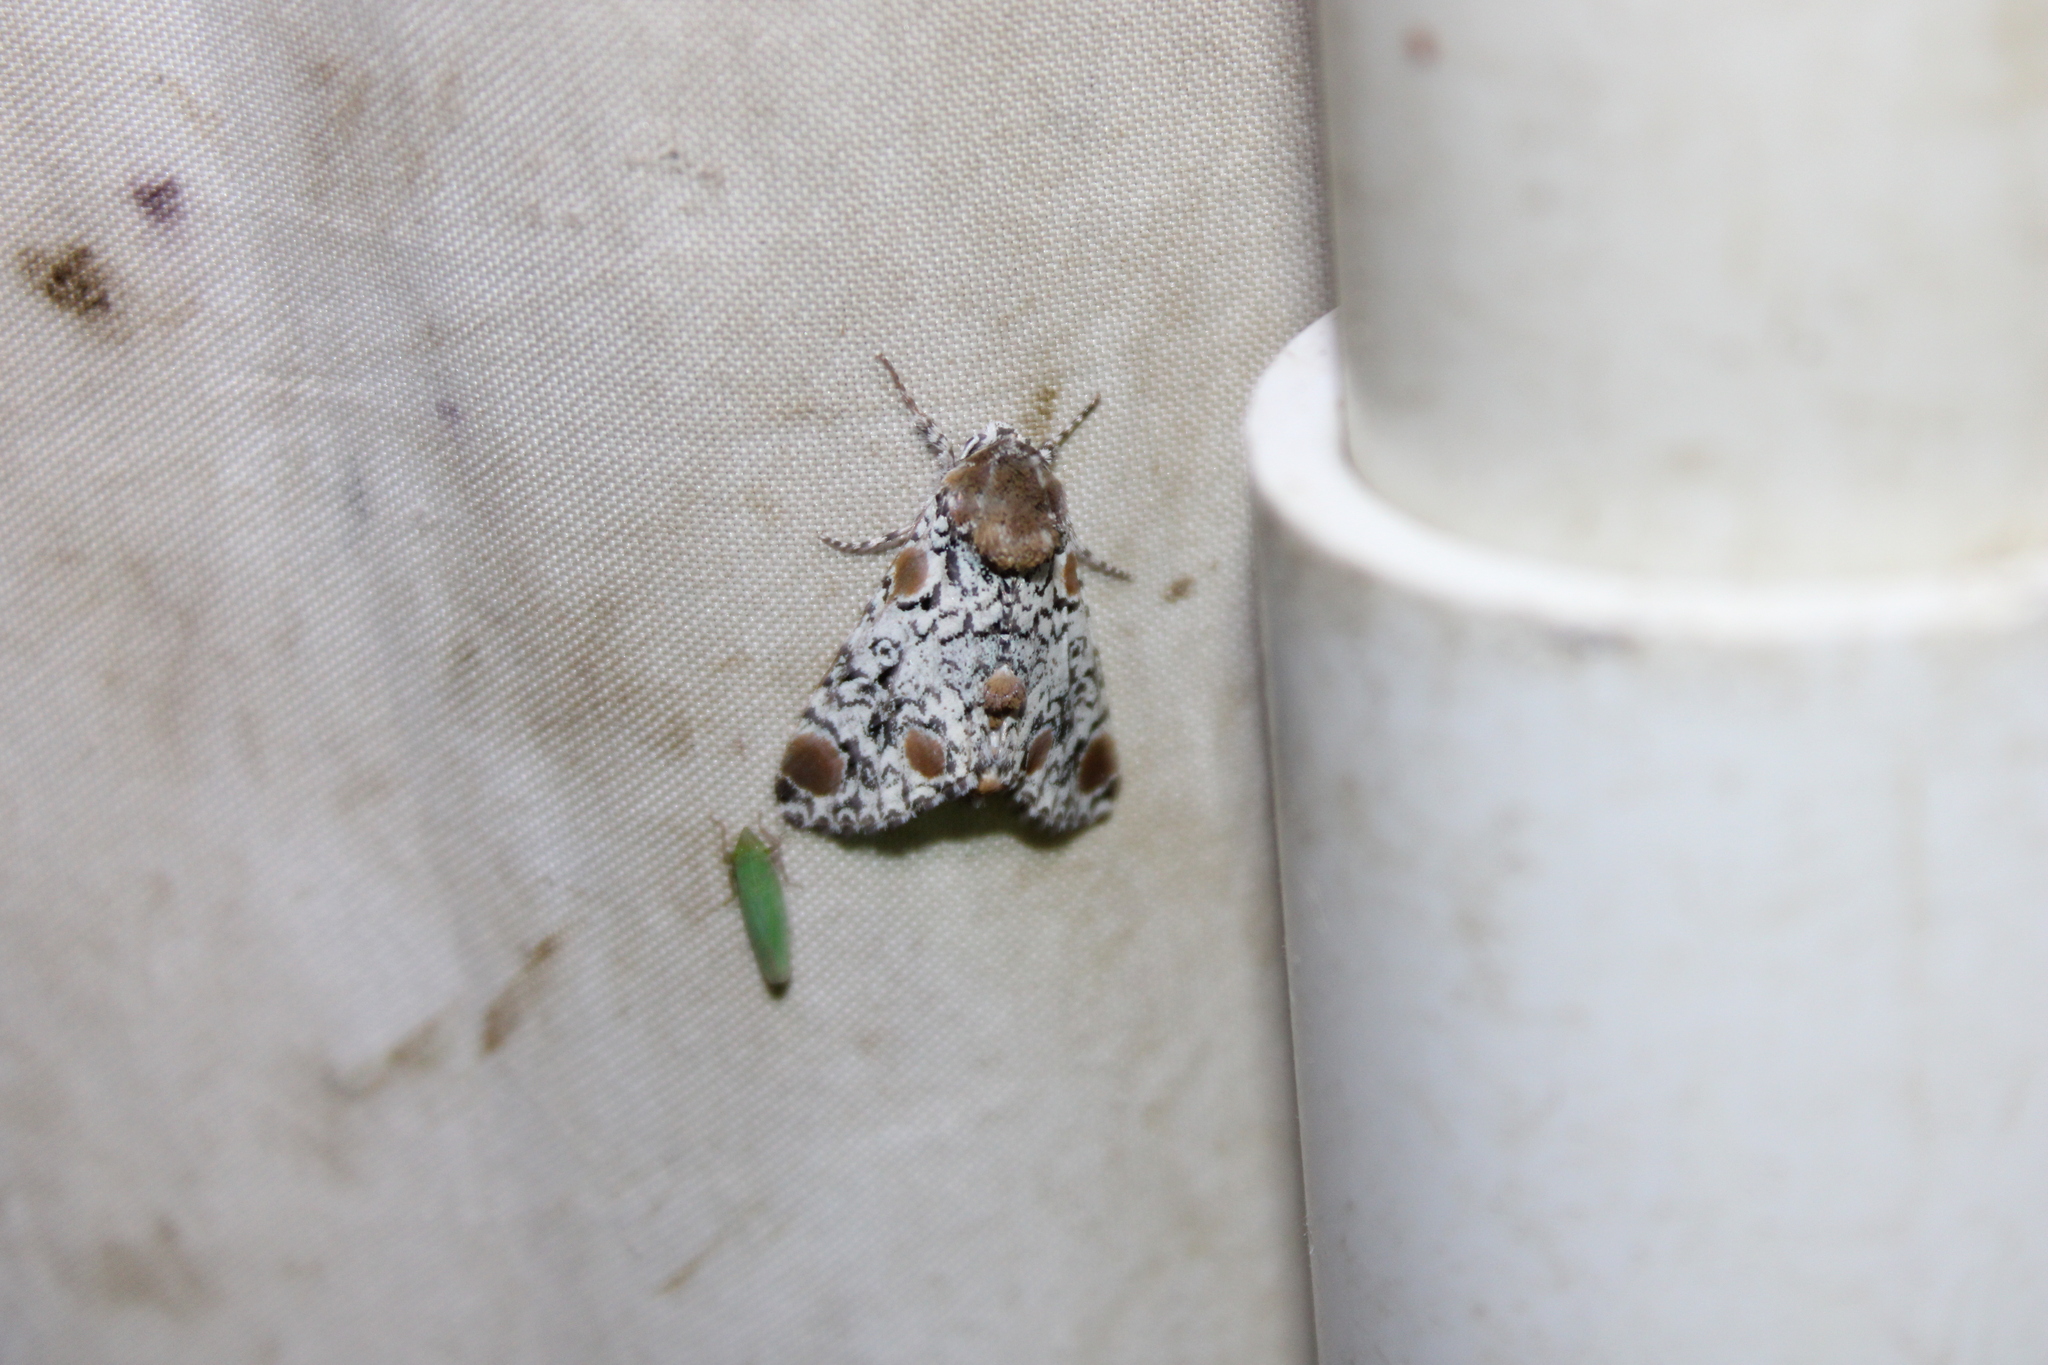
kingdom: Animalia
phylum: Arthropoda
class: Insecta
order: Lepidoptera
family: Noctuidae
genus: Harrisimemna
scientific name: Harrisimemna trisignata
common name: Harris threespot
